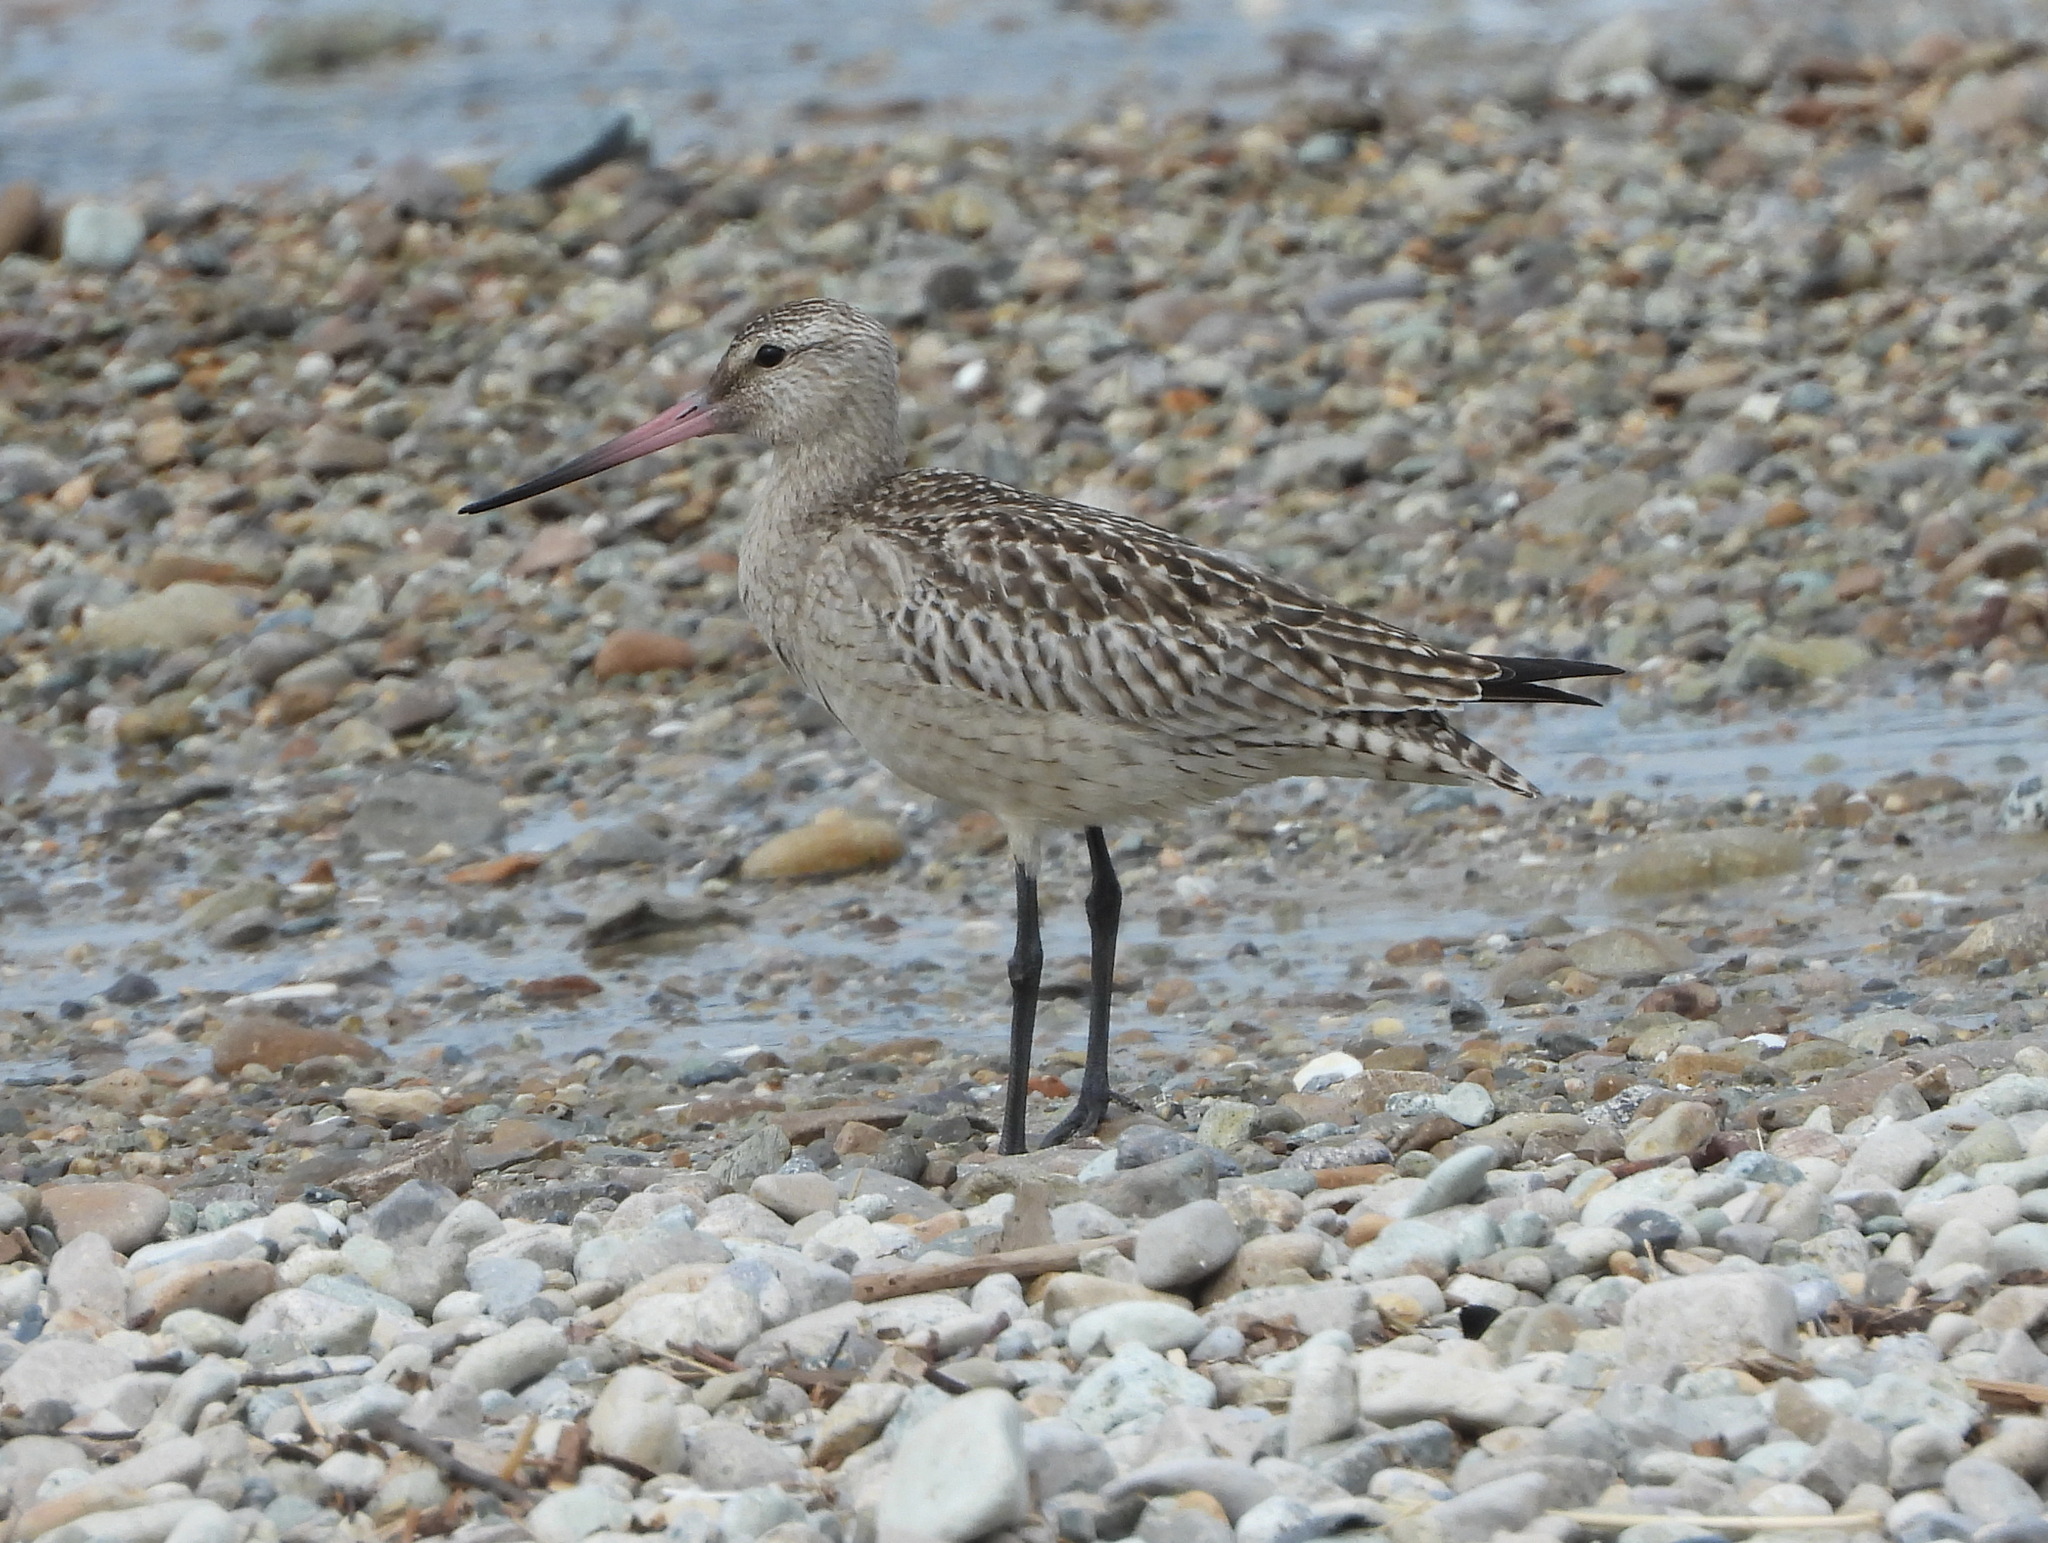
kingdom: Animalia
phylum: Chordata
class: Aves
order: Charadriiformes
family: Scolopacidae
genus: Limosa
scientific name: Limosa lapponica
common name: Bar-tailed godwit
